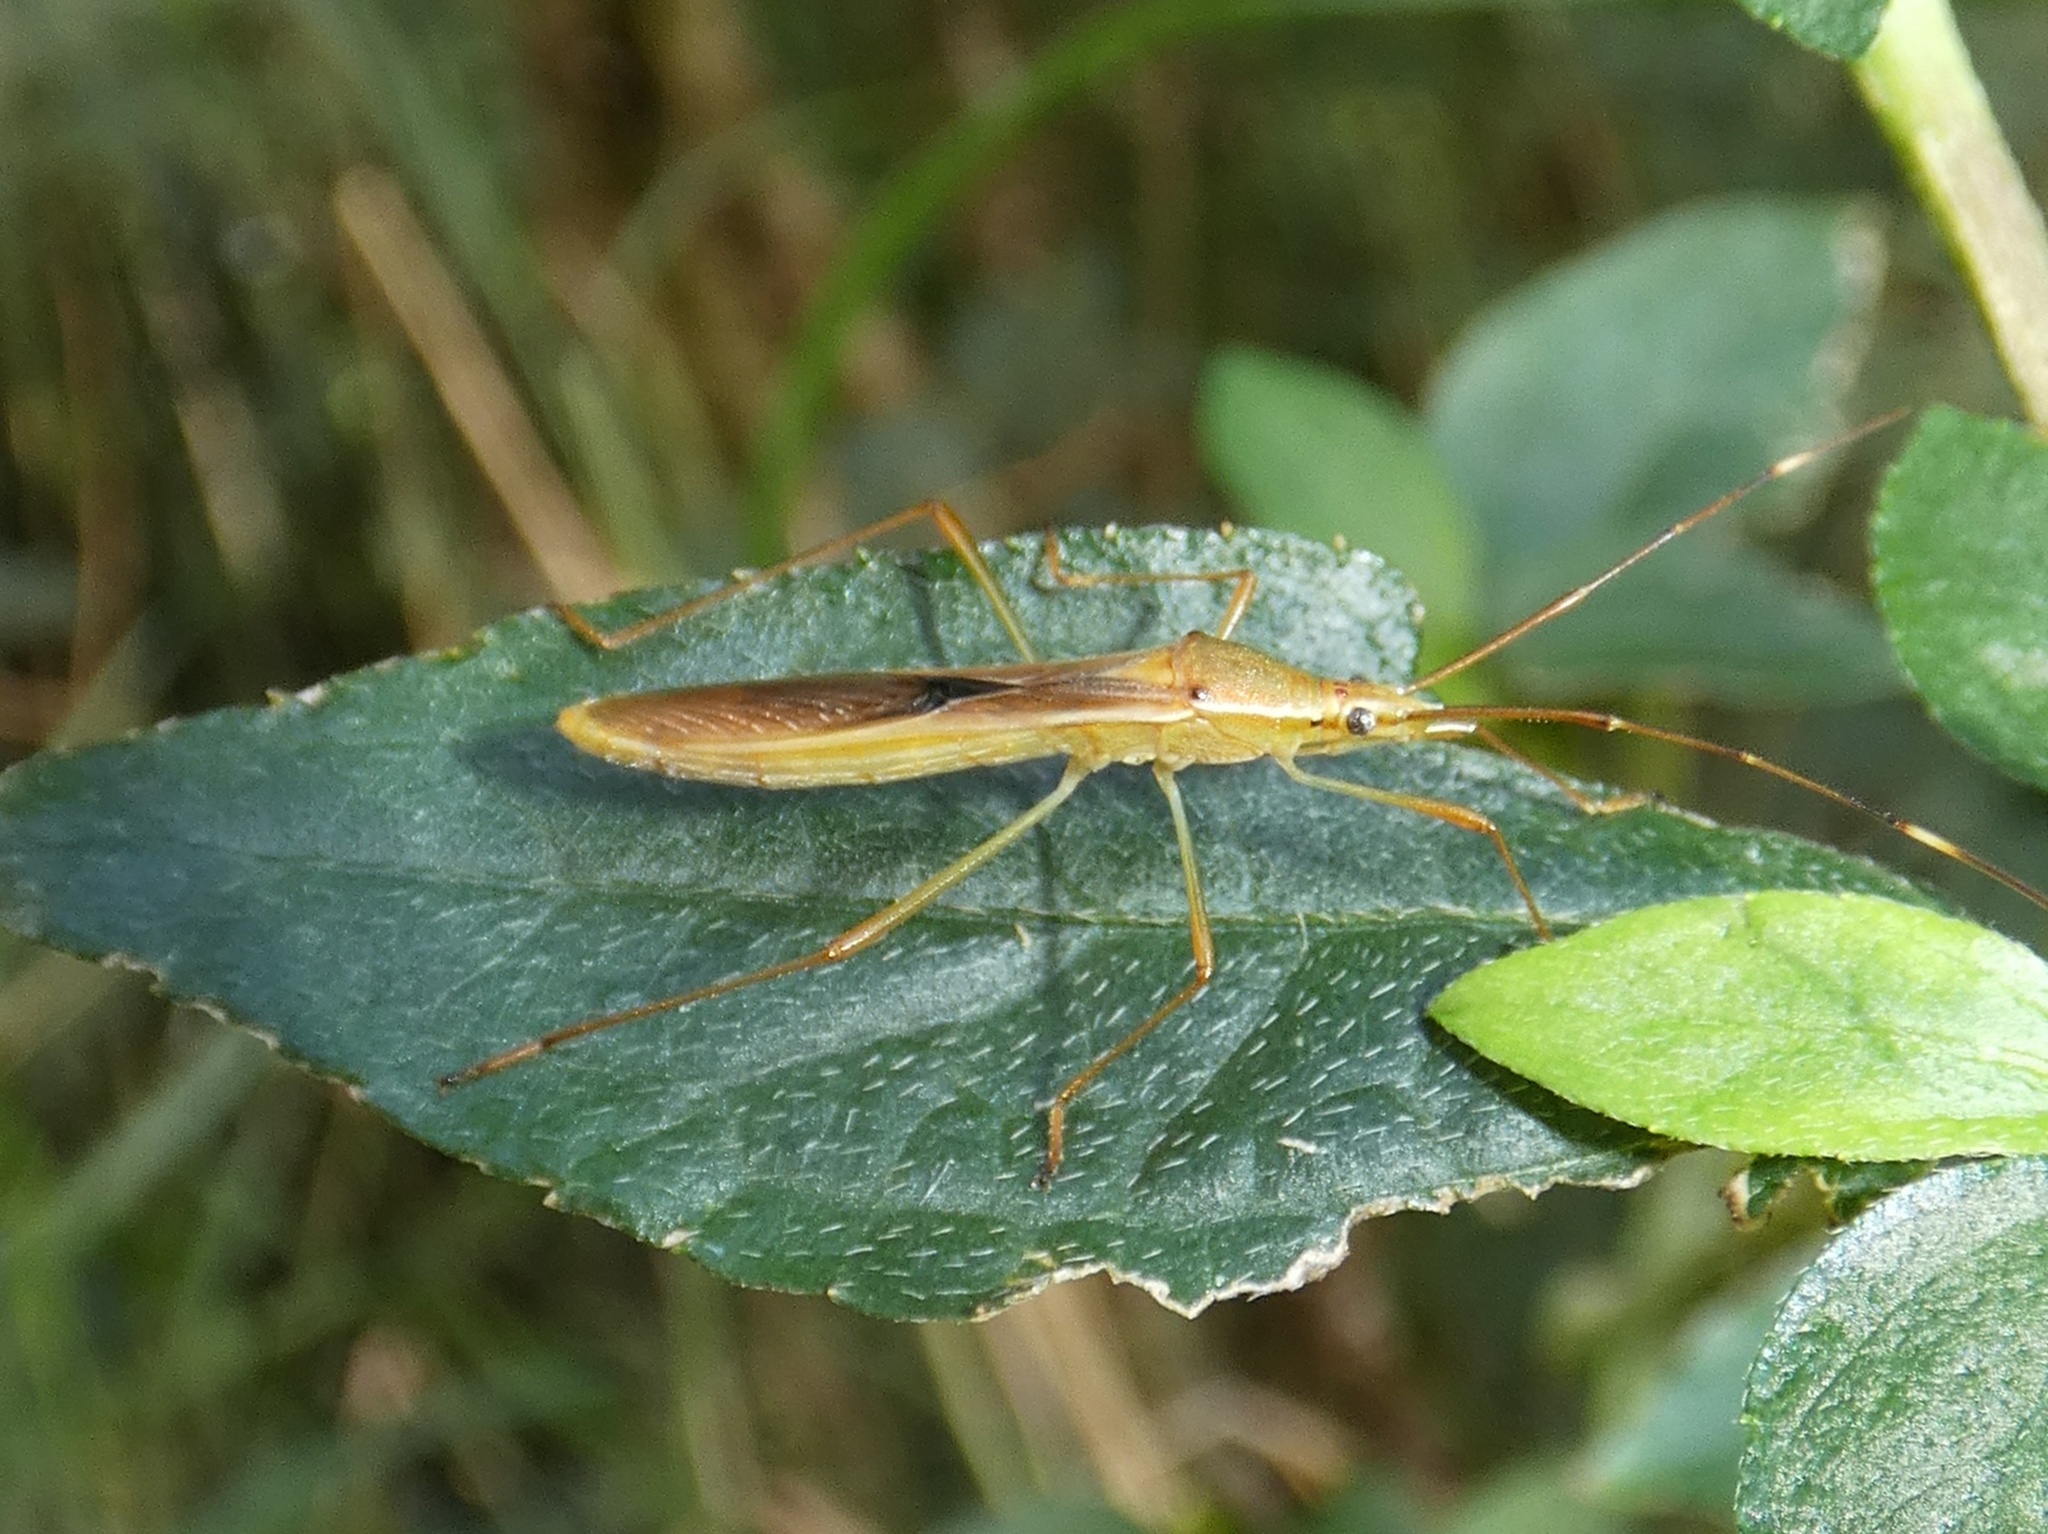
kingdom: Animalia
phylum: Arthropoda
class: Insecta
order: Hemiptera
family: Alydidae
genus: Leptocorisa
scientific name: Leptocorisa acuta
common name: Gandhi bug
